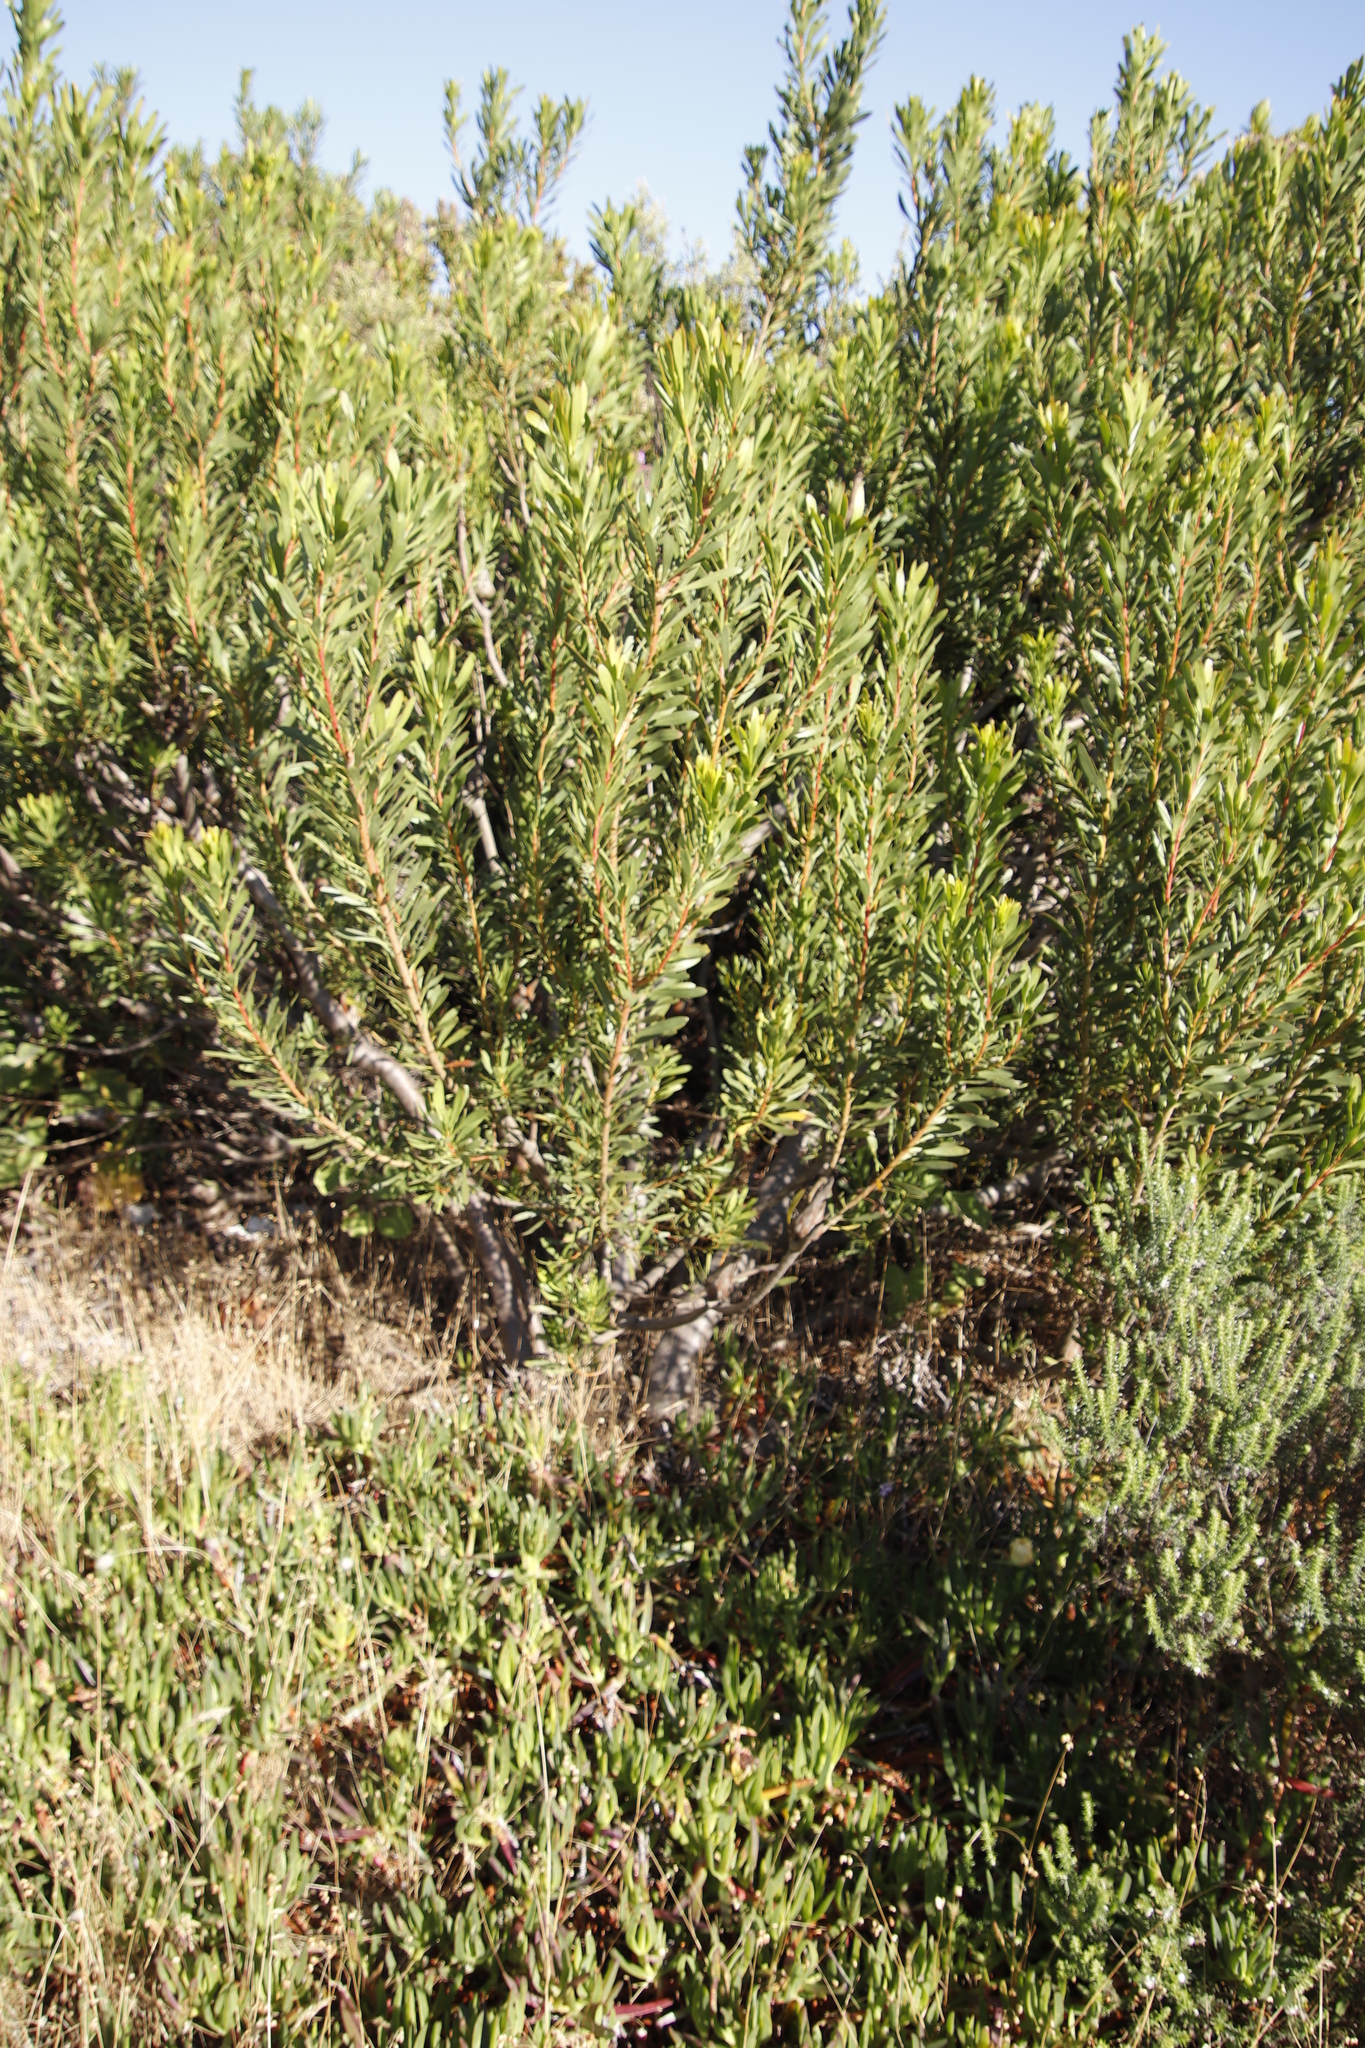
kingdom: Plantae
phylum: Tracheophyta
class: Magnoliopsida
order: Proteales
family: Proteaceae
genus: Protea
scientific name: Protea repens
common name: Sugarbush
